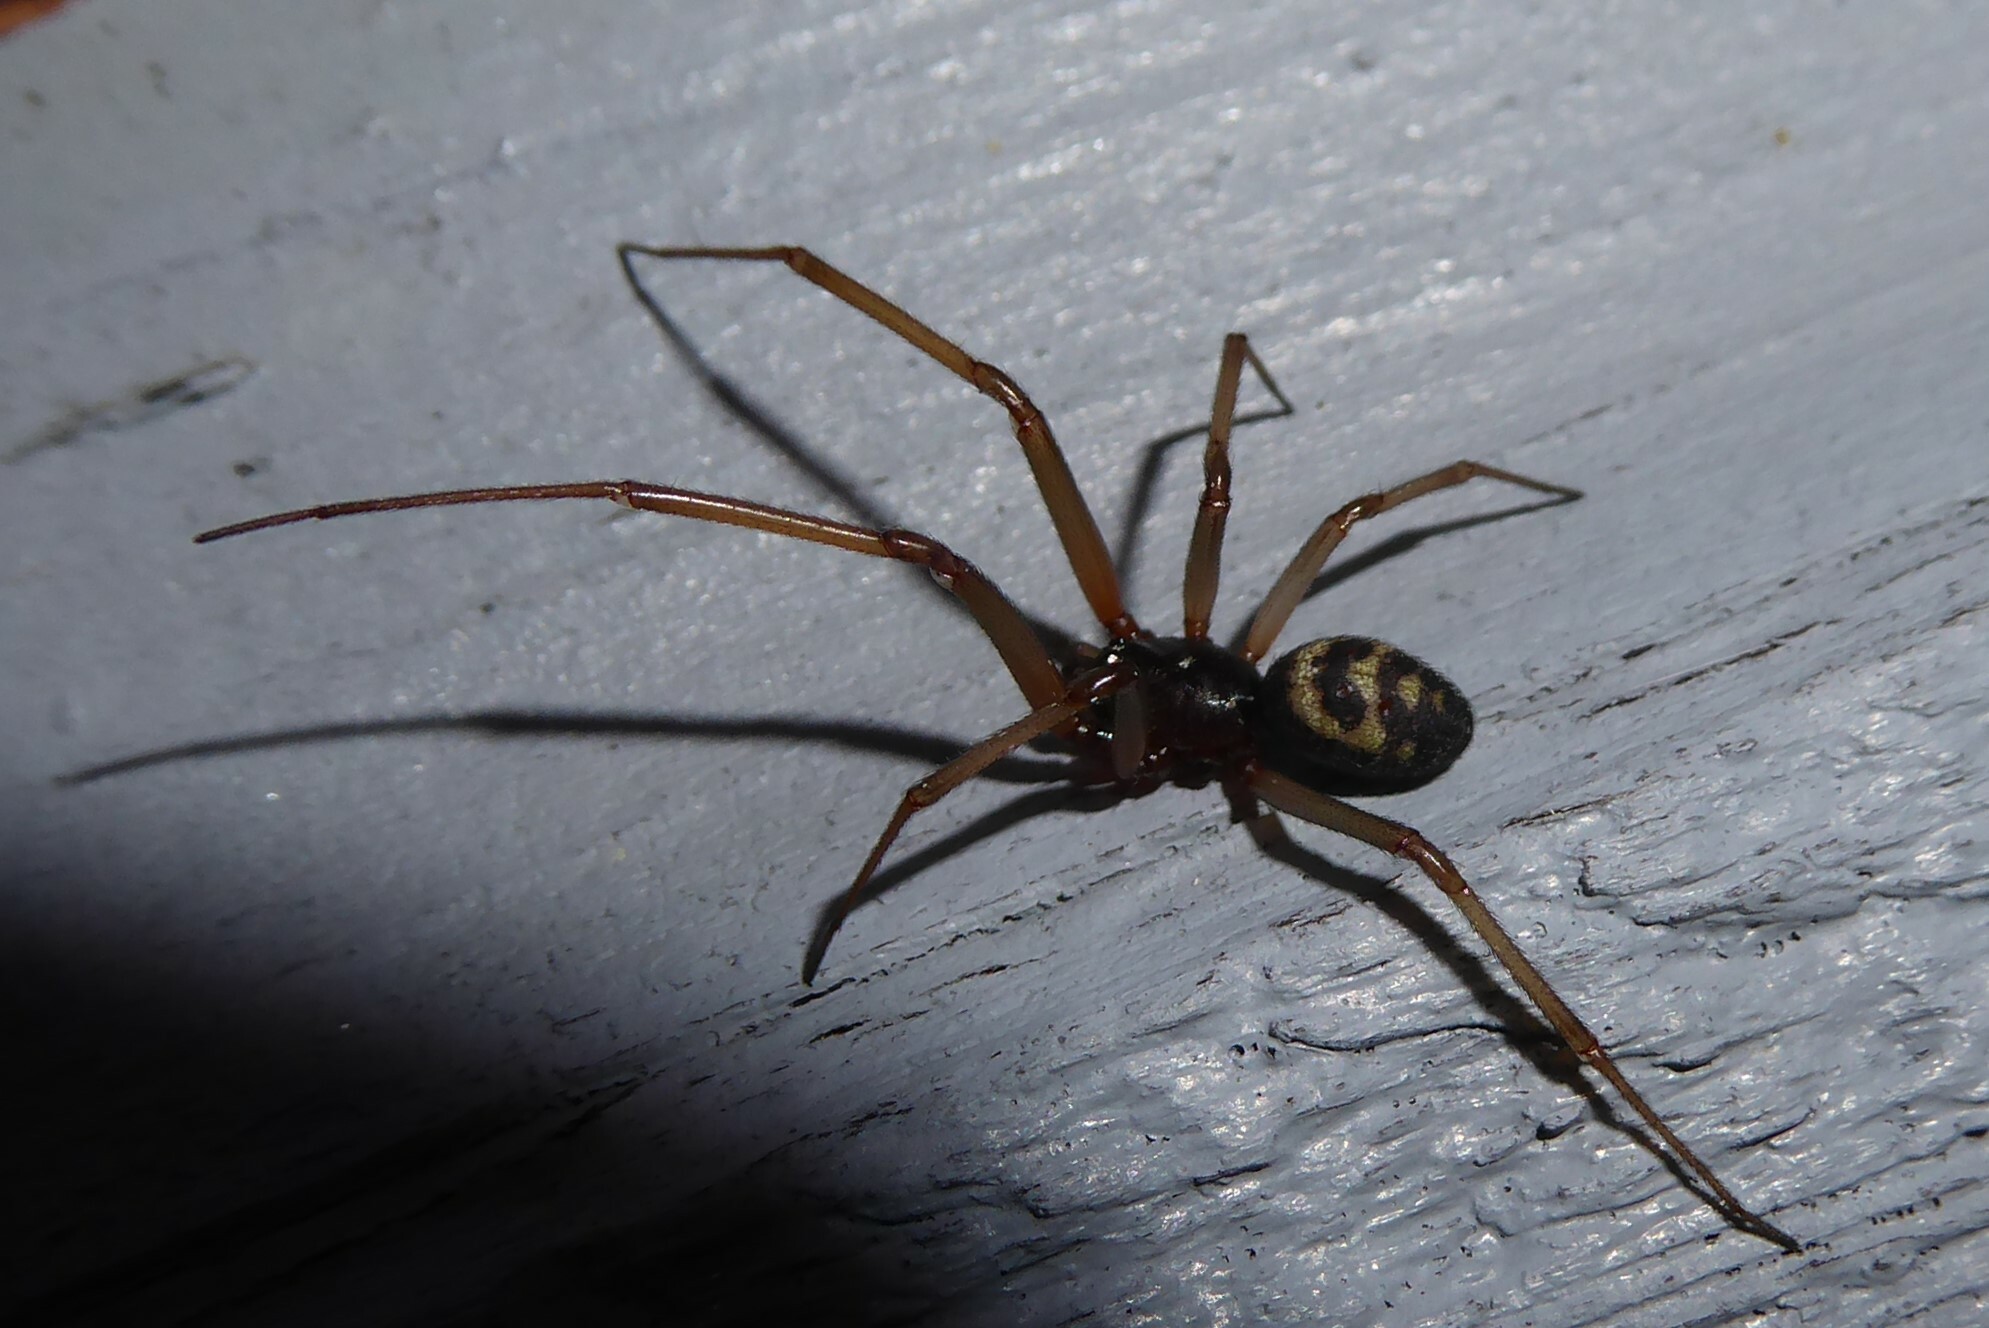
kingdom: Animalia
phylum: Arthropoda
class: Arachnida
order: Araneae
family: Theridiidae
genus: Steatoda
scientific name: Steatoda grossa
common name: False black widow
